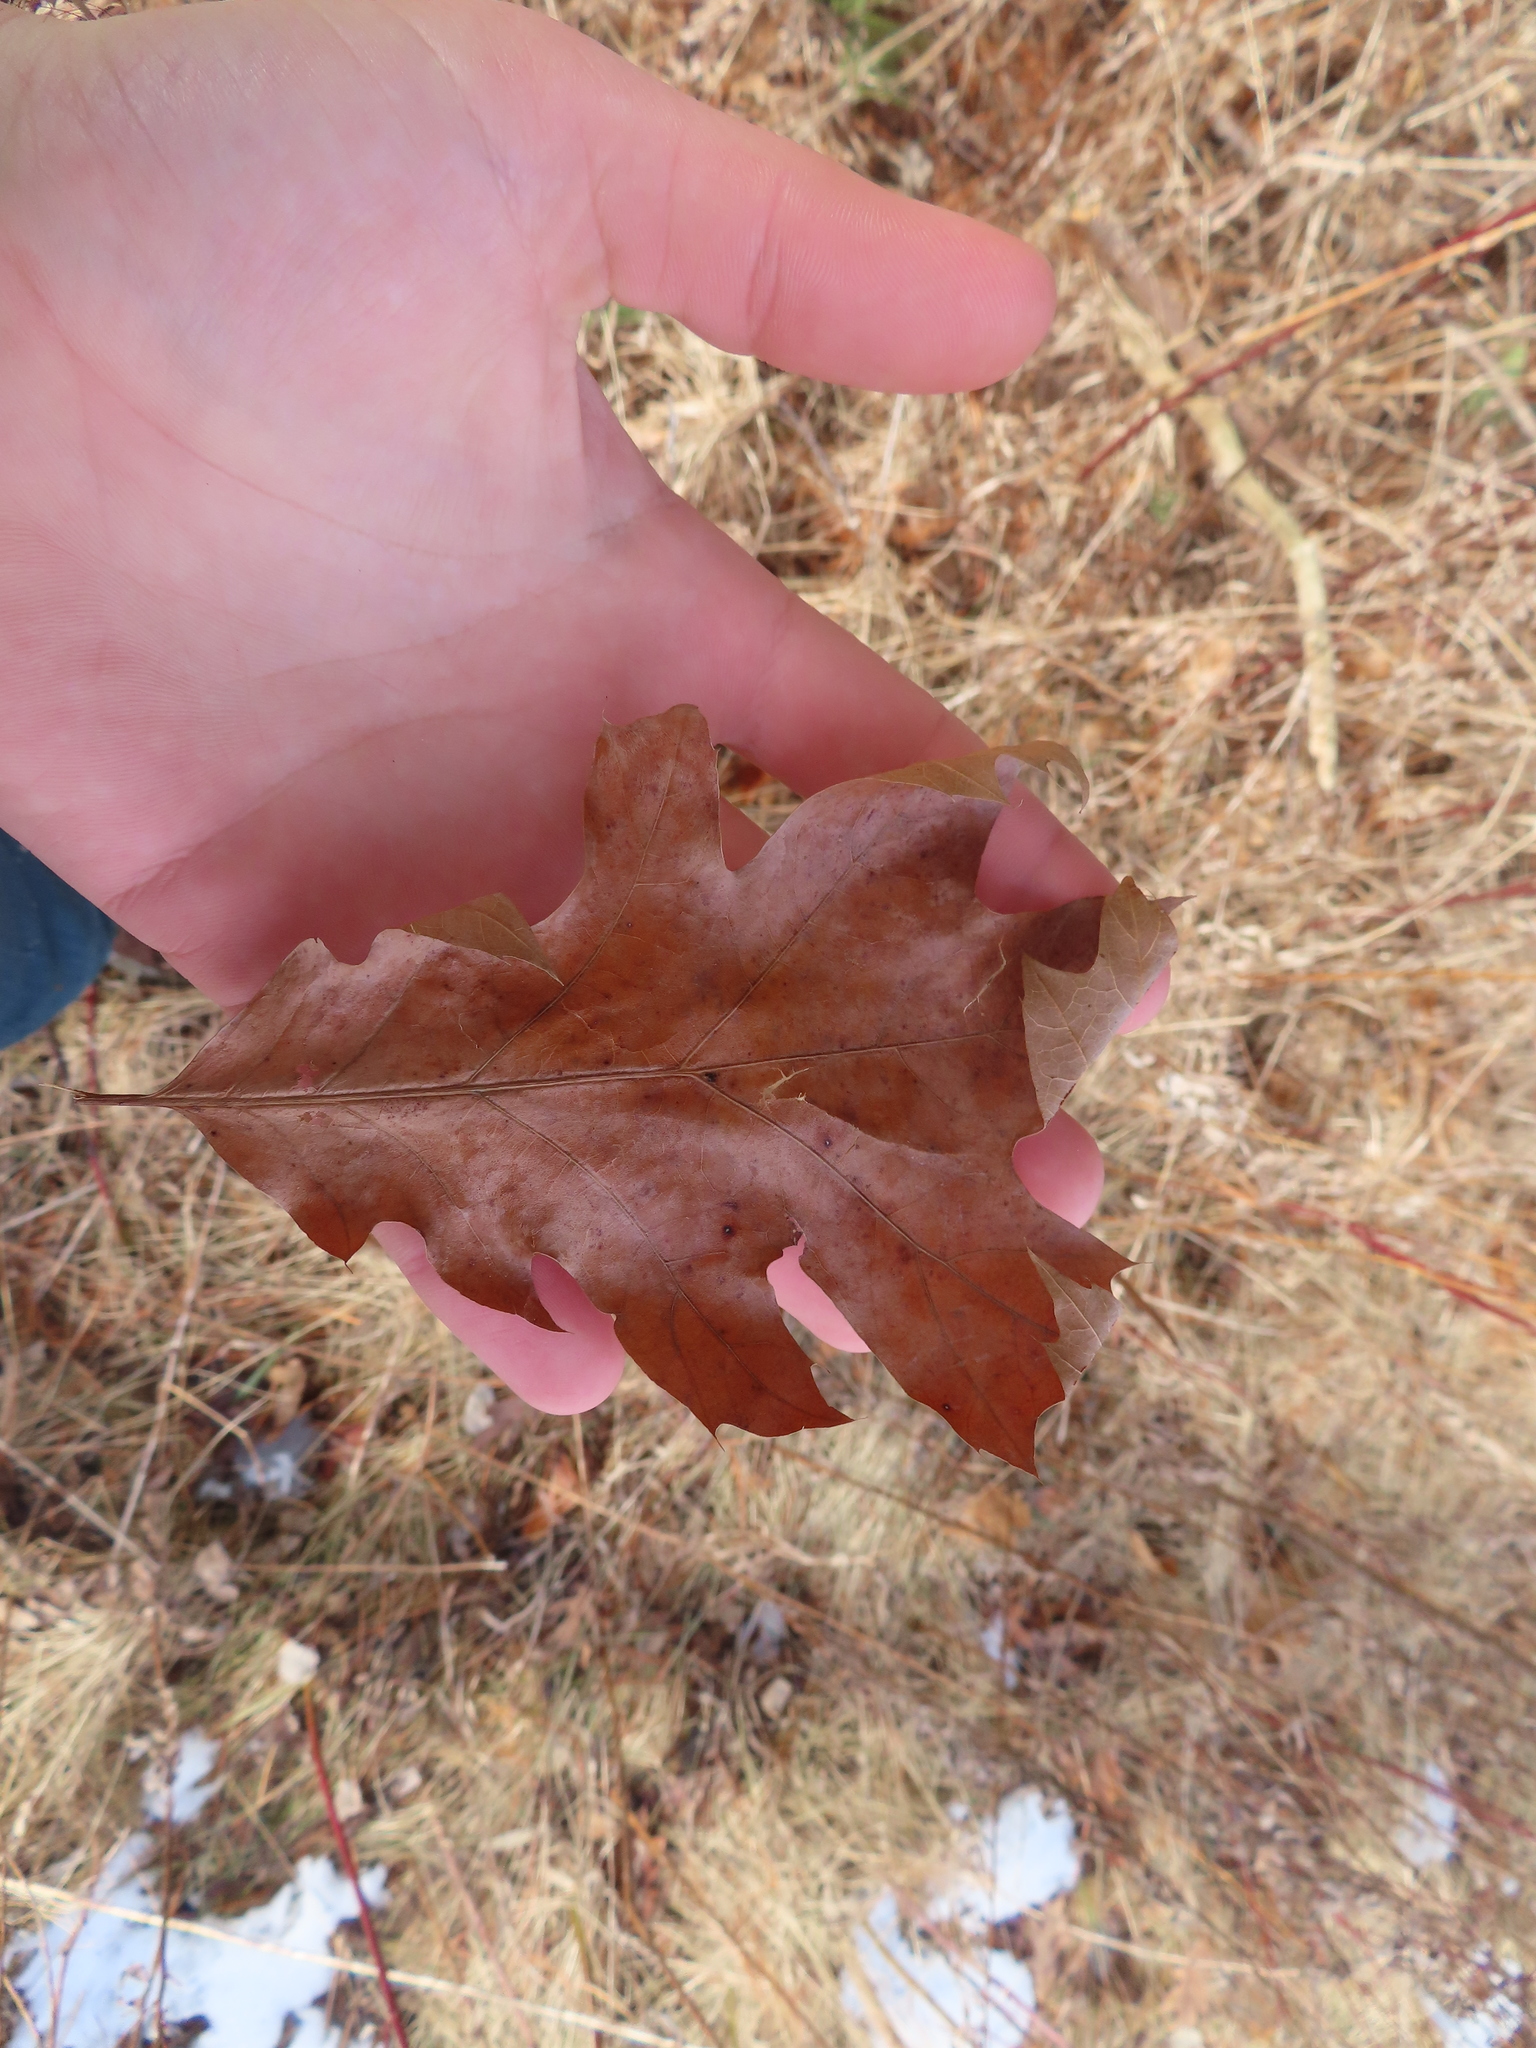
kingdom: Plantae
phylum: Tracheophyta
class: Magnoliopsida
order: Fagales
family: Fagaceae
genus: Quercus
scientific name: Quercus velutina
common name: Black oak
